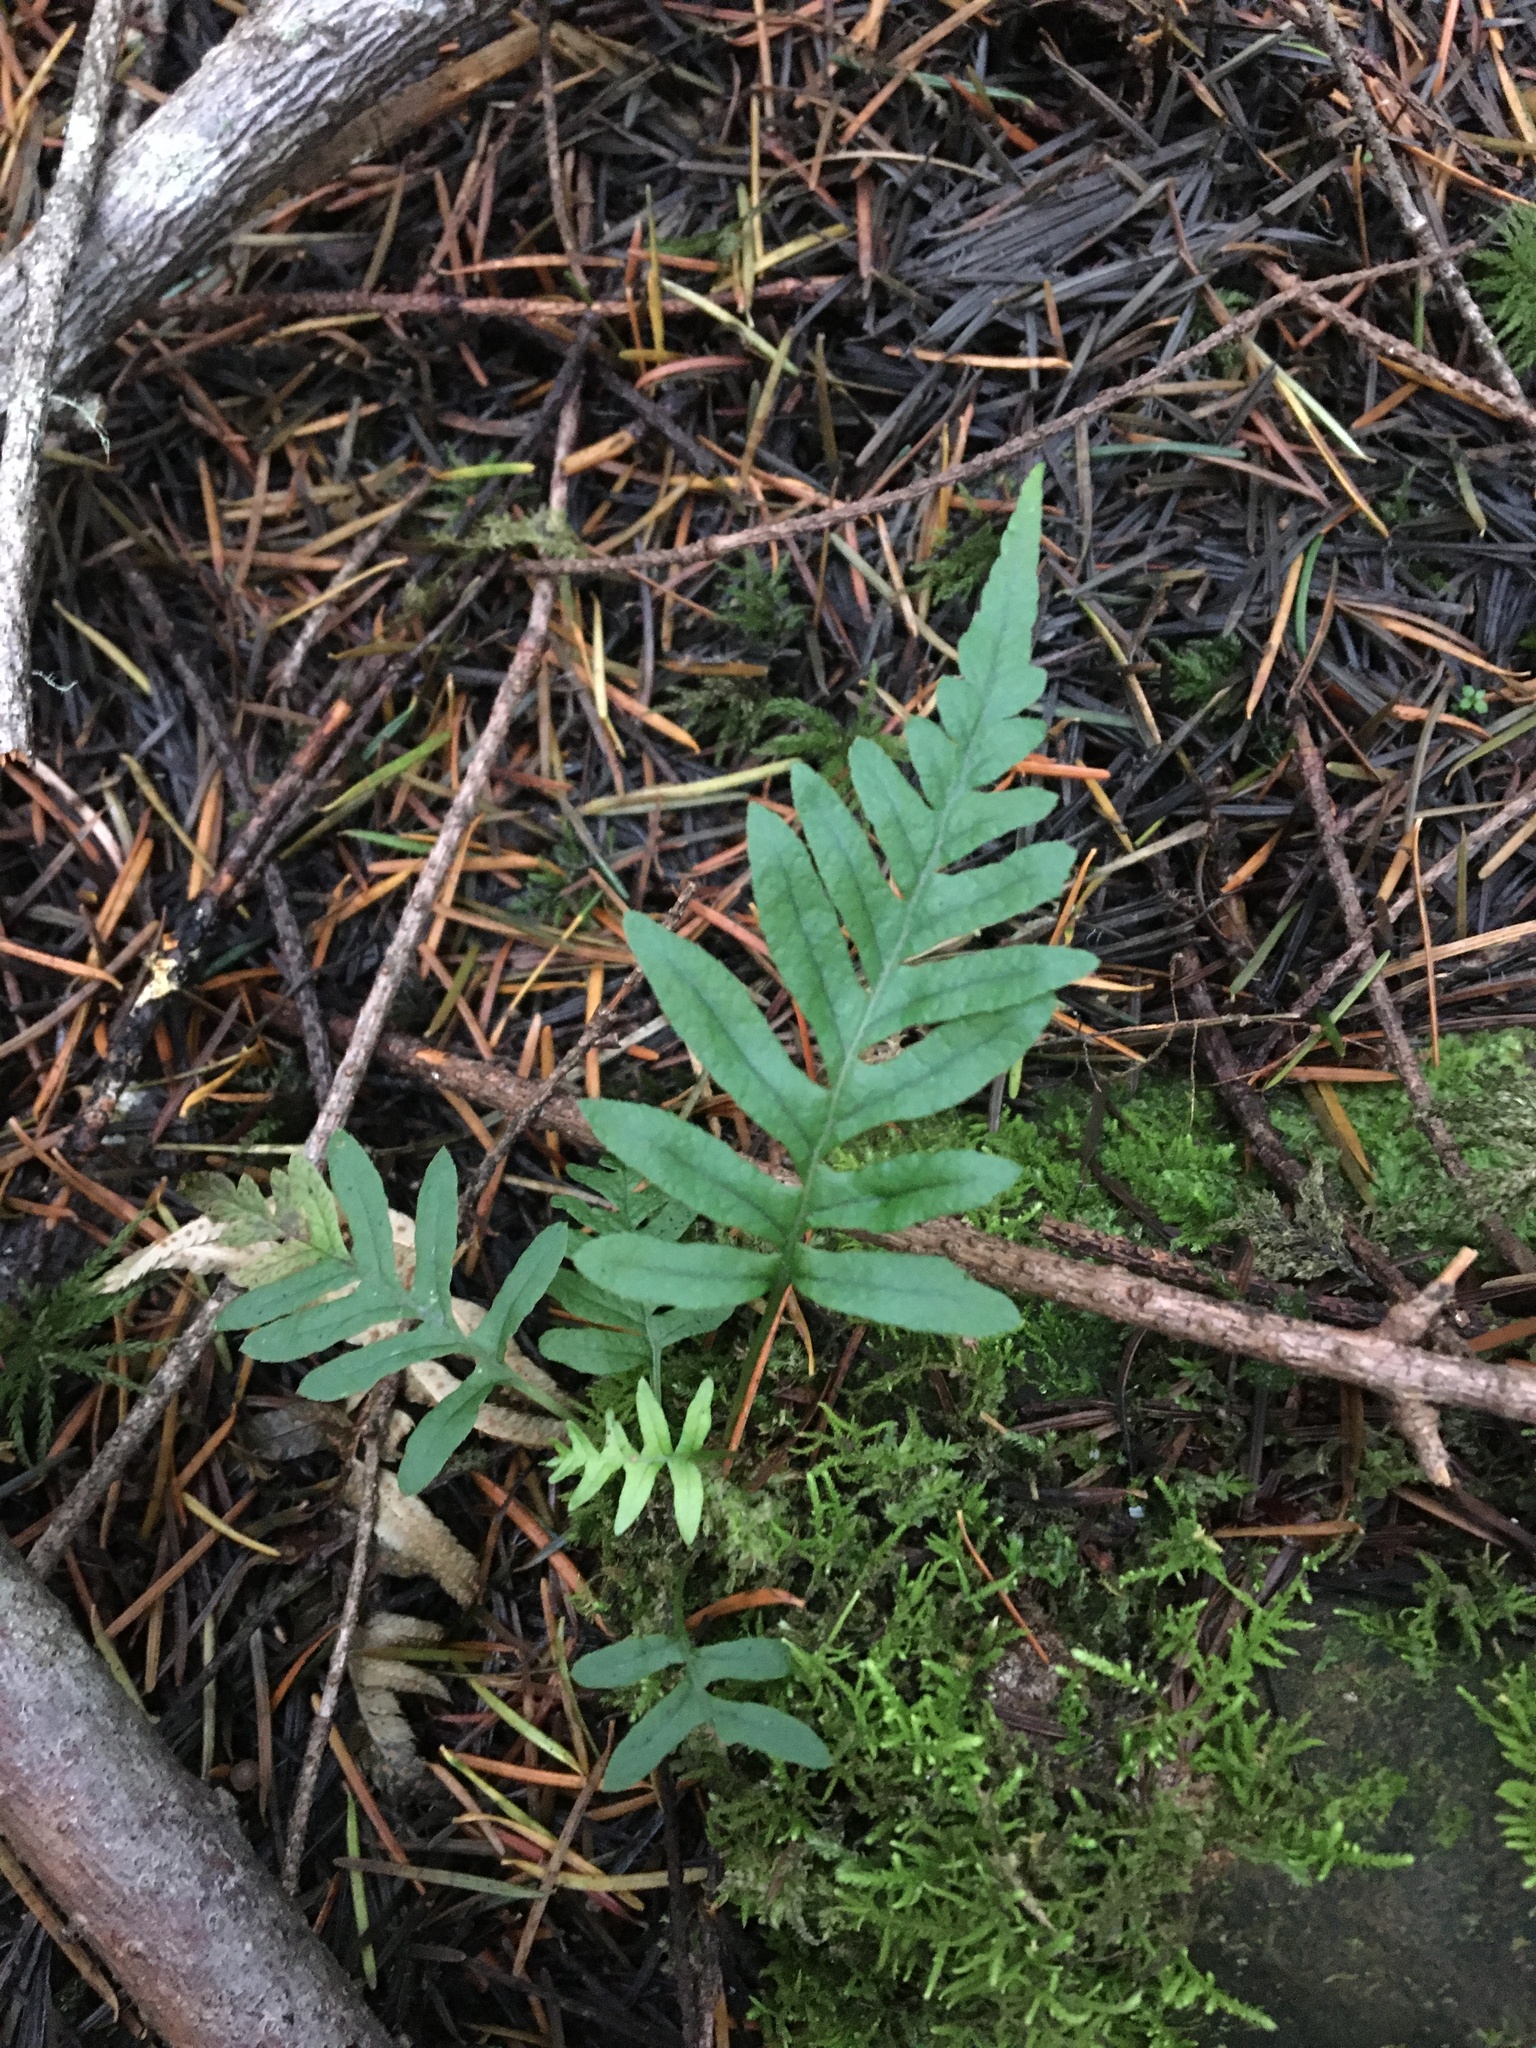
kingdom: Plantae
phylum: Tracheophyta
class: Polypodiopsida
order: Polypodiales
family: Polypodiaceae
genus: Polypodium
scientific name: Polypodium glycyrrhiza
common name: Licorice fern
